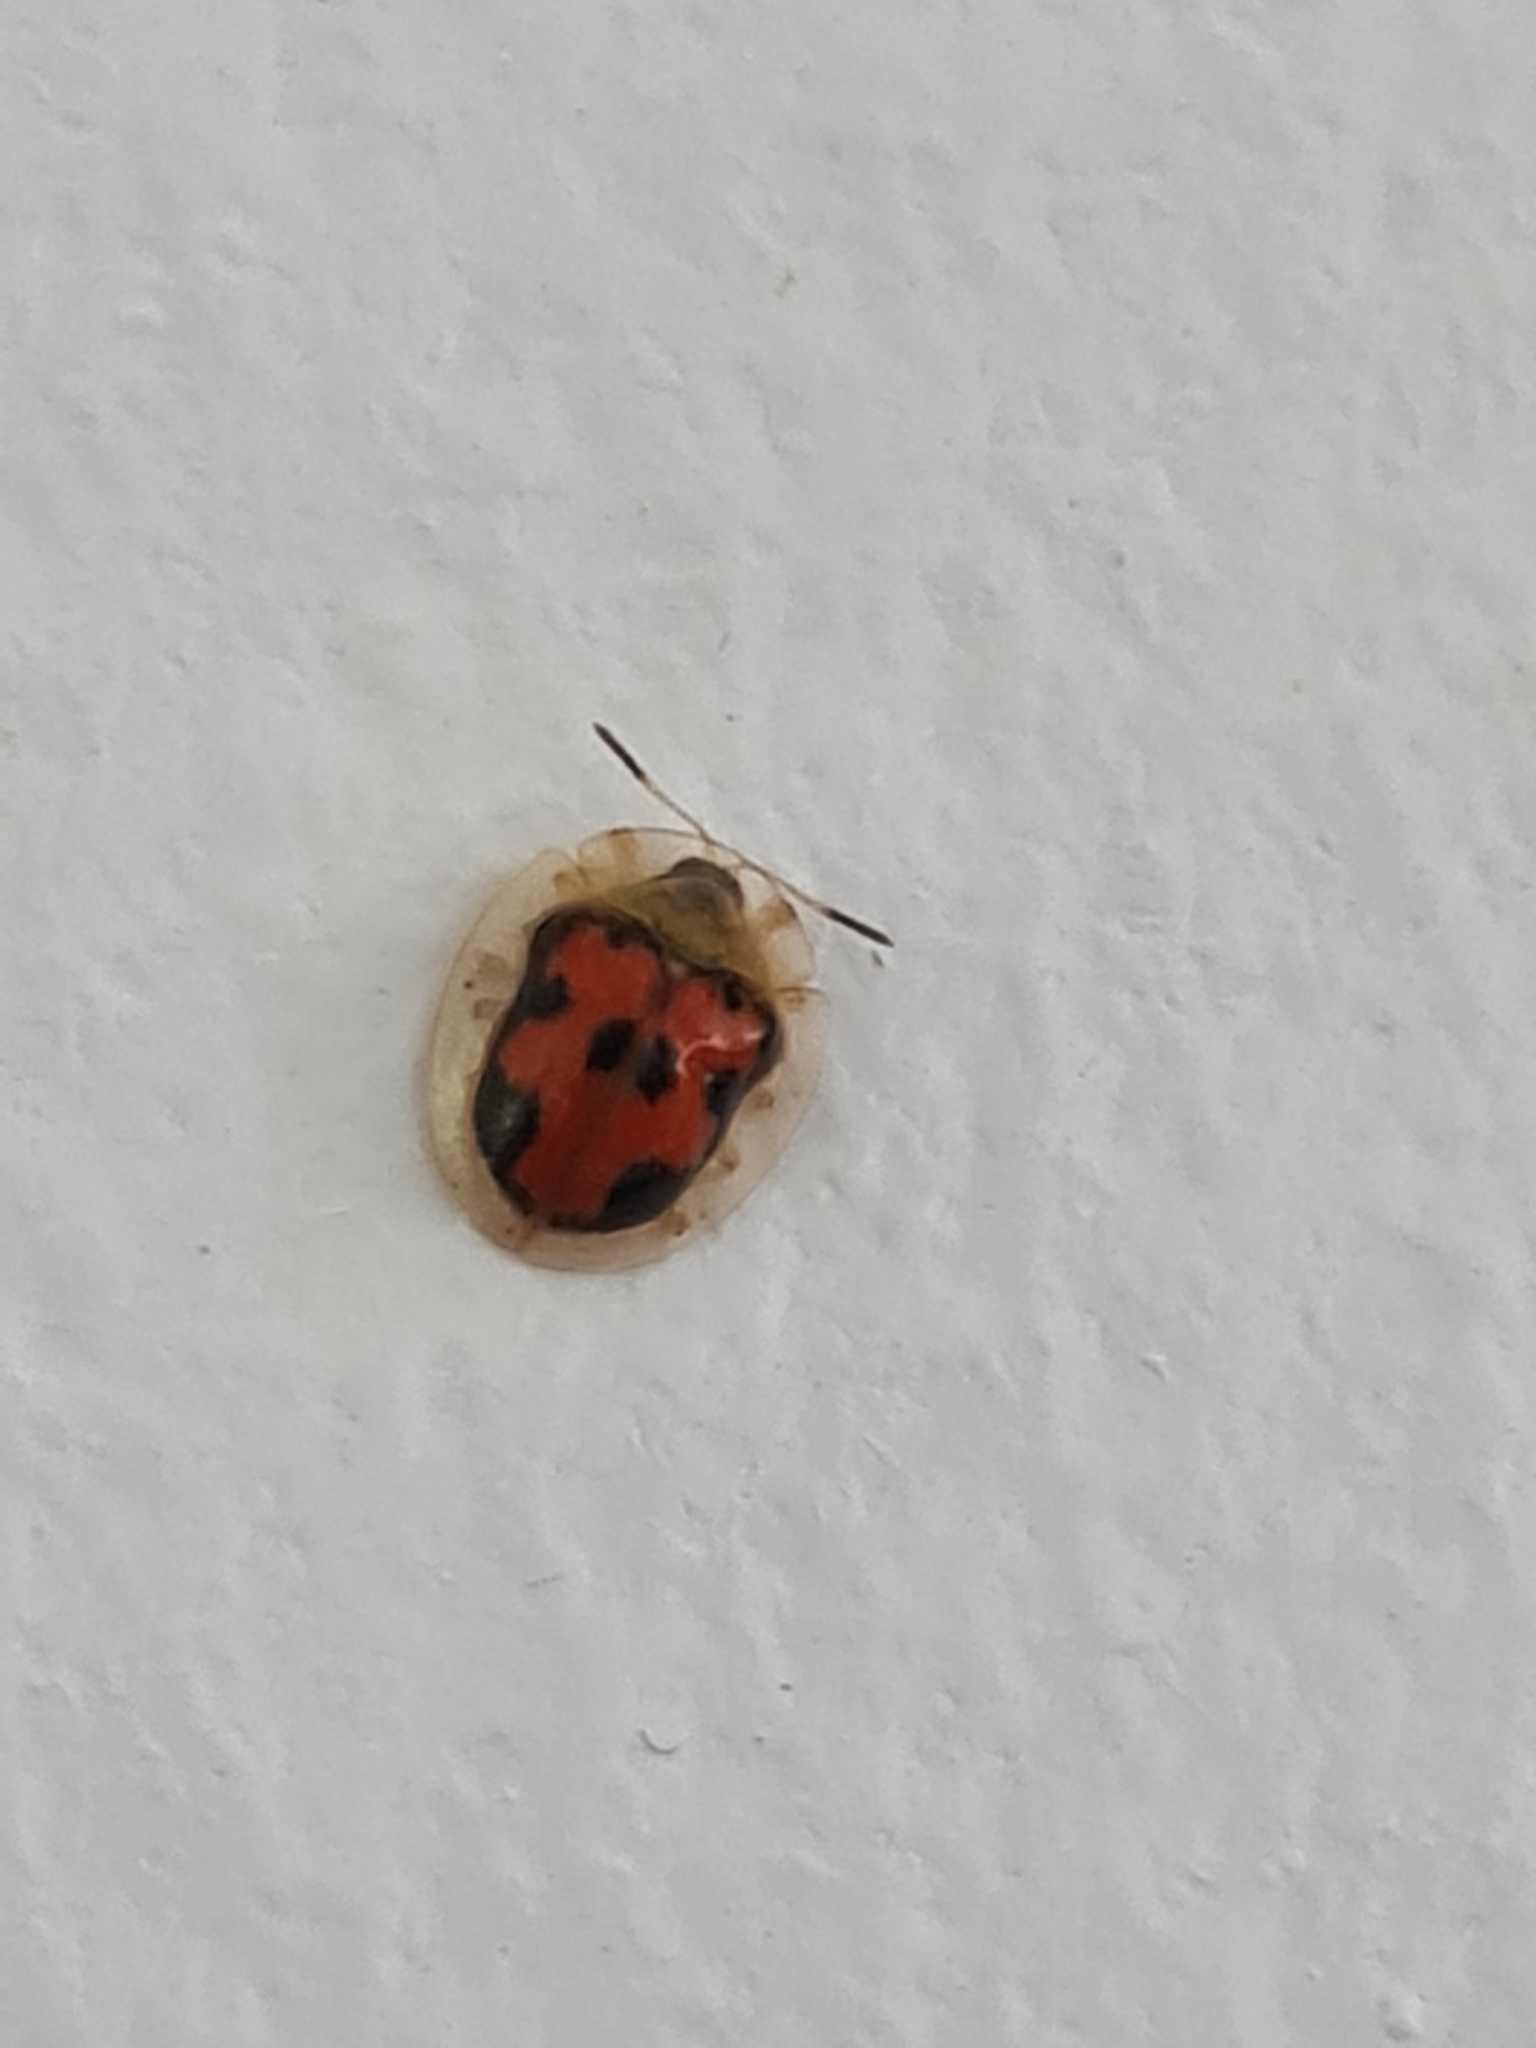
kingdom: Animalia
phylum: Arthropoda
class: Insecta
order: Coleoptera
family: Chrysomelidae
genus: Charidotella
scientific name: Charidotella inconstans
